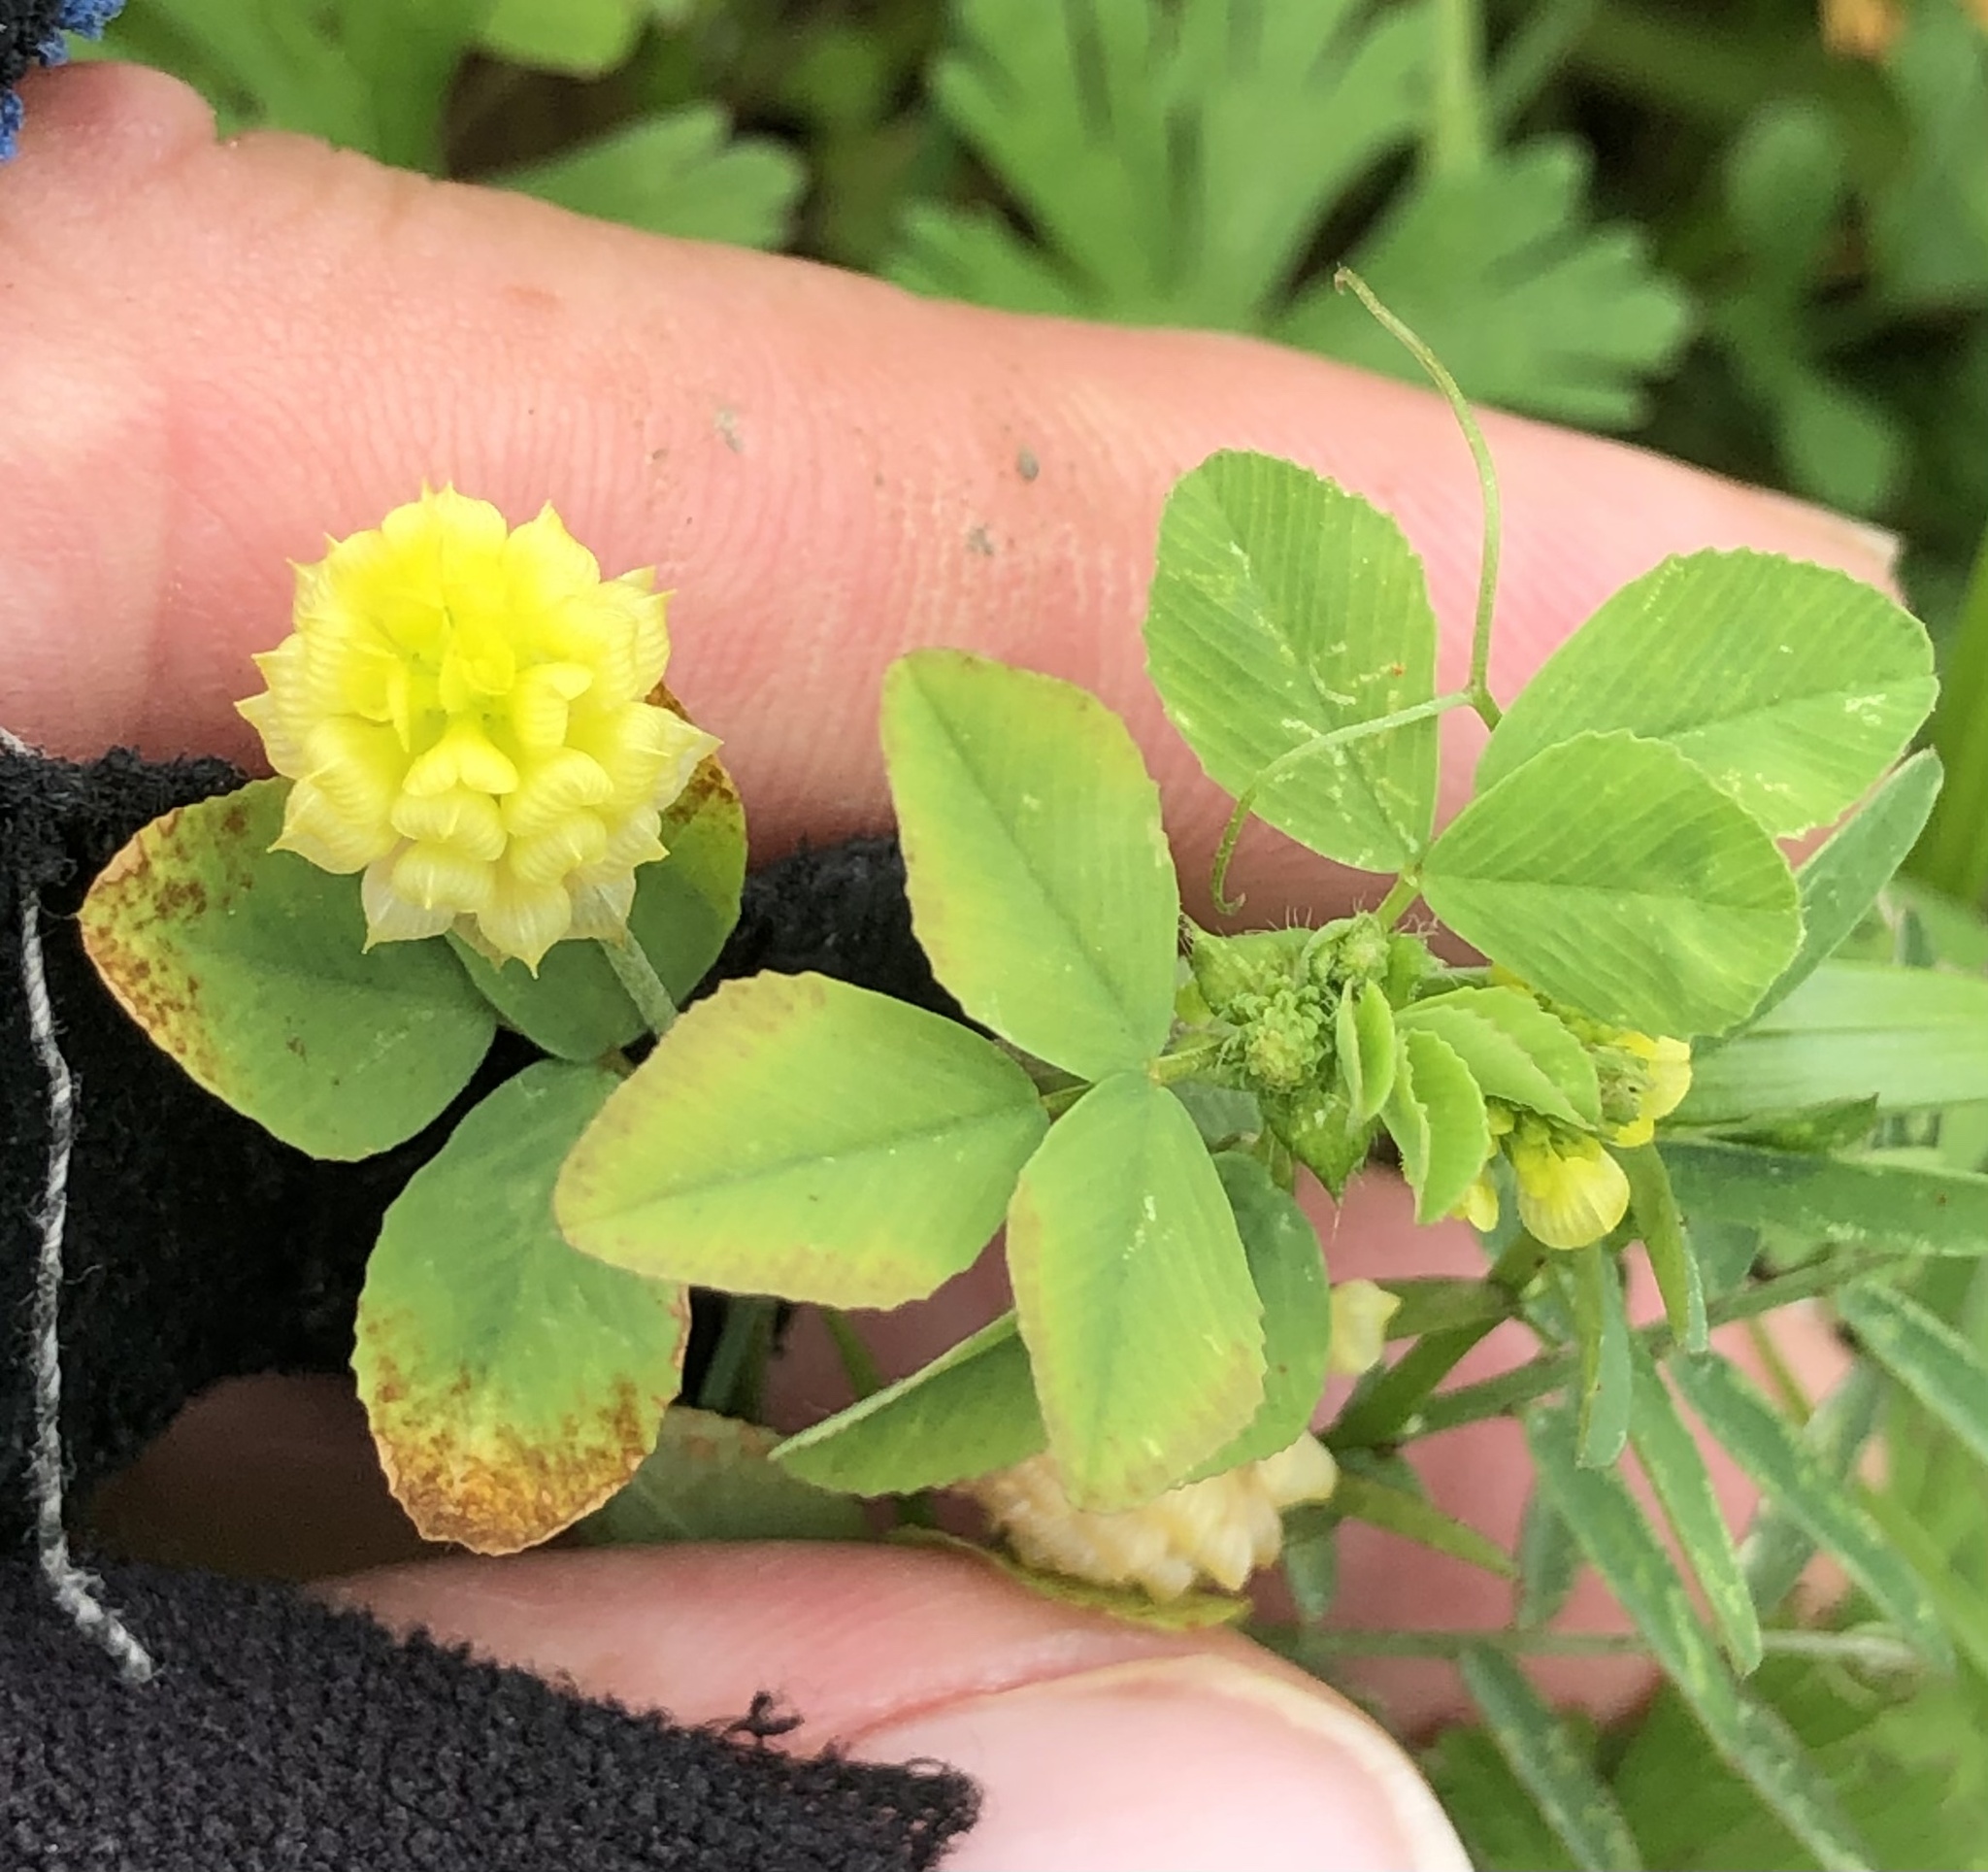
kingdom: Plantae
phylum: Tracheophyta
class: Magnoliopsida
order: Fabales
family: Fabaceae
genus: Trifolium
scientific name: Trifolium campestre
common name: Field clover
